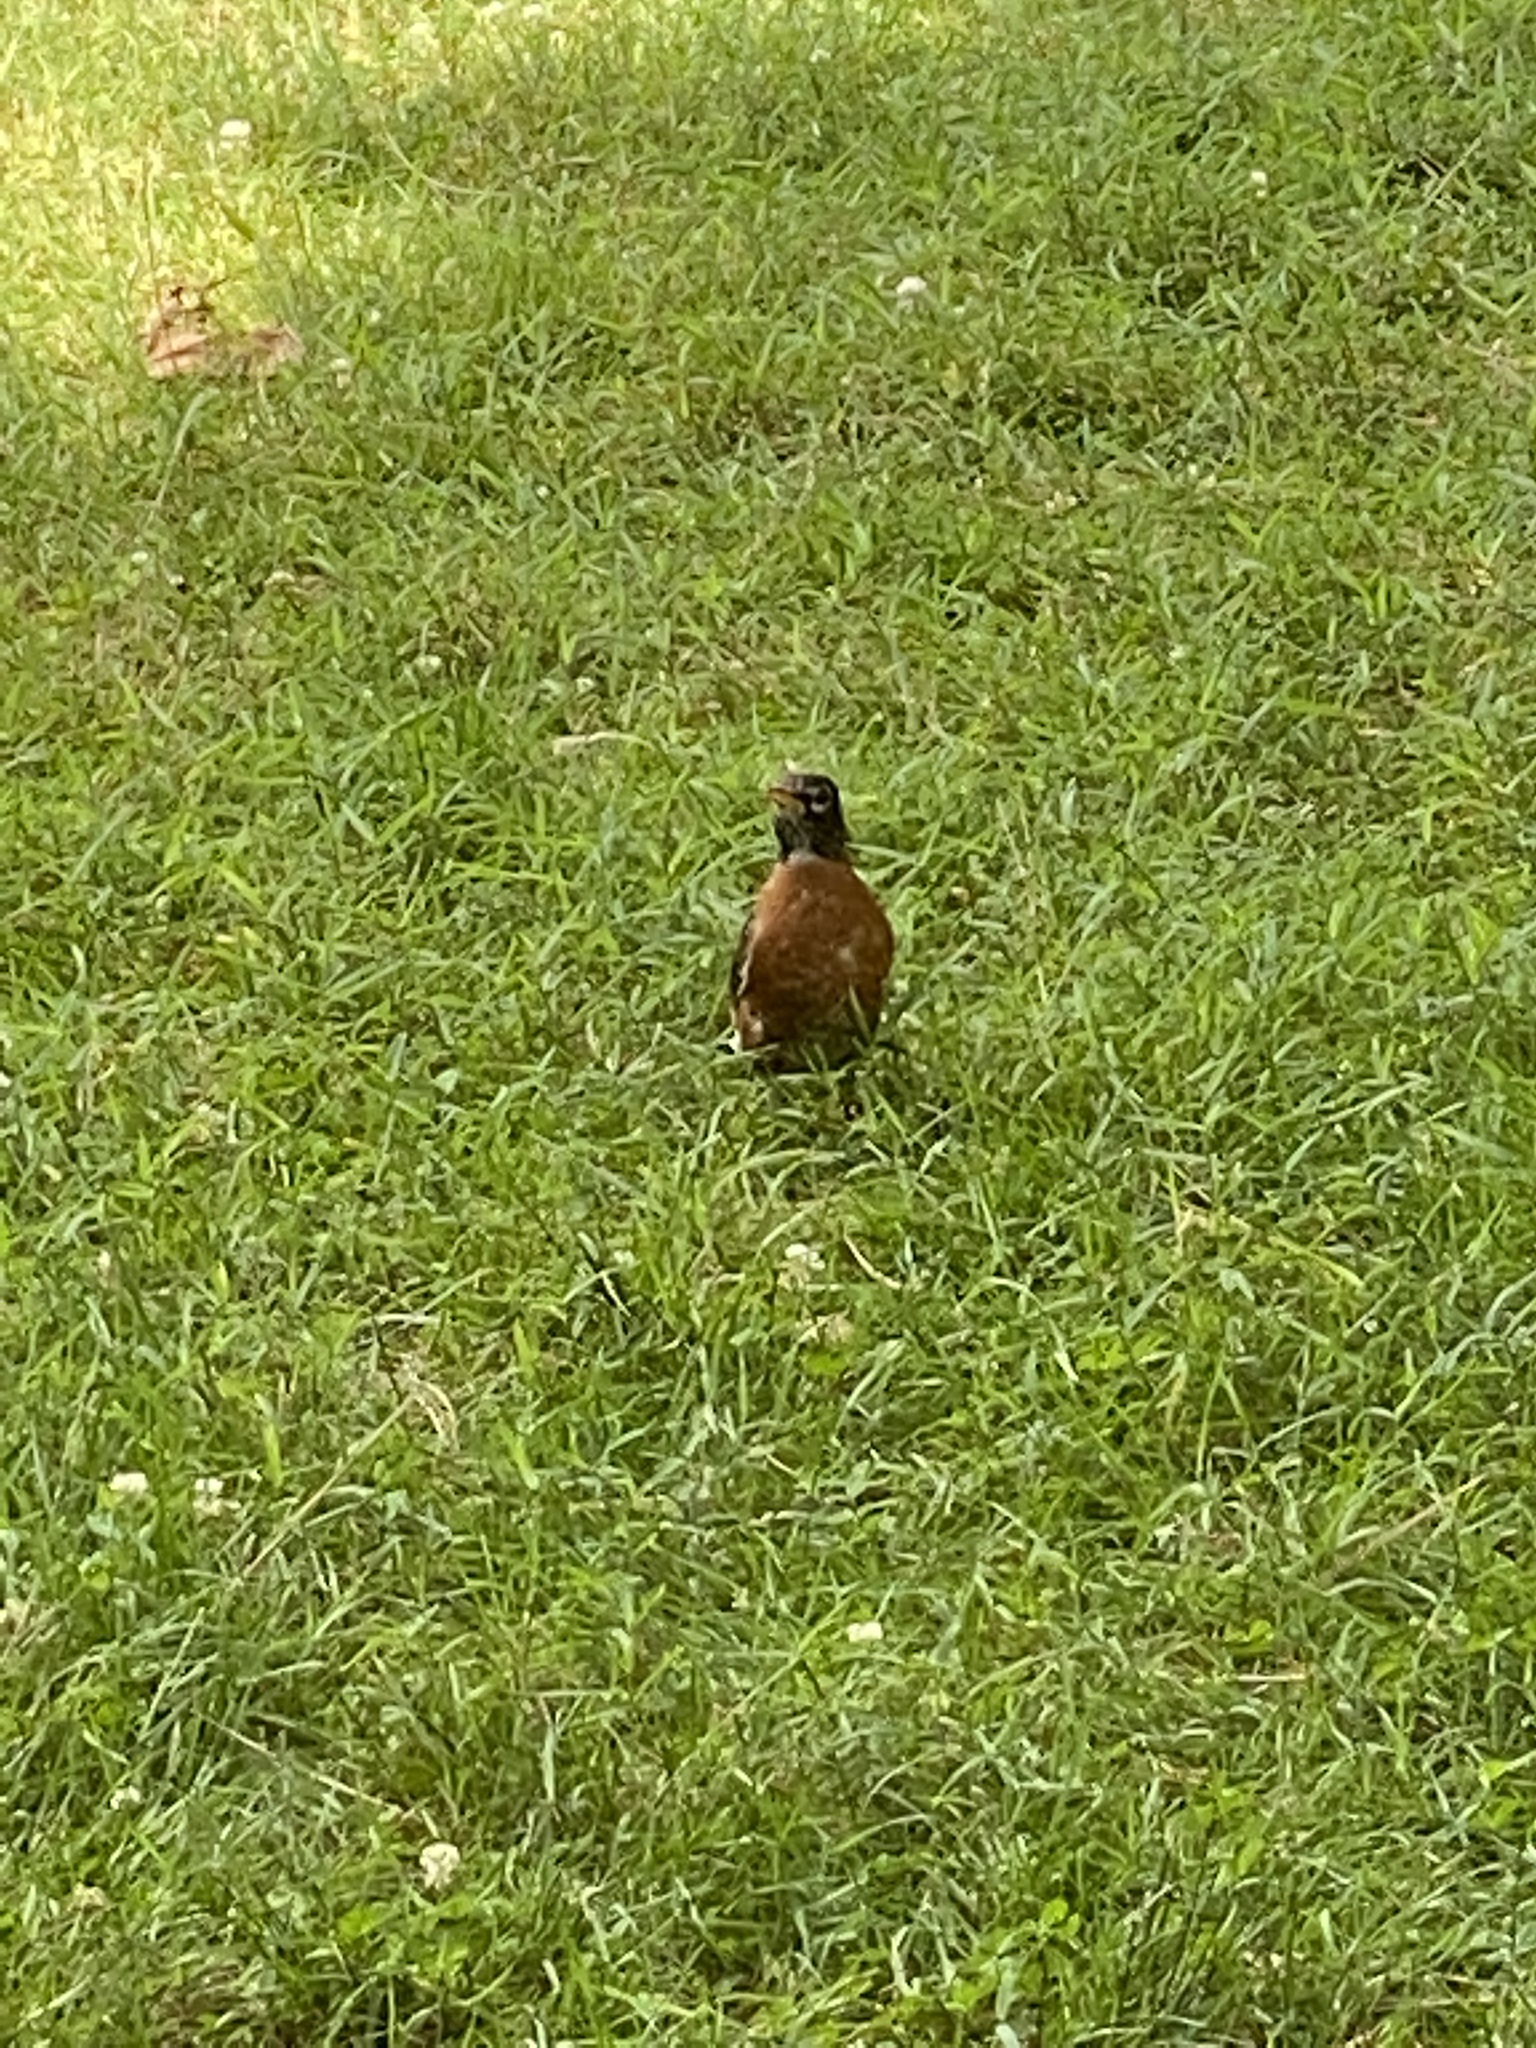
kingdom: Animalia
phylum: Chordata
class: Aves
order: Passeriformes
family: Turdidae
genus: Turdus
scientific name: Turdus migratorius
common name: American robin
